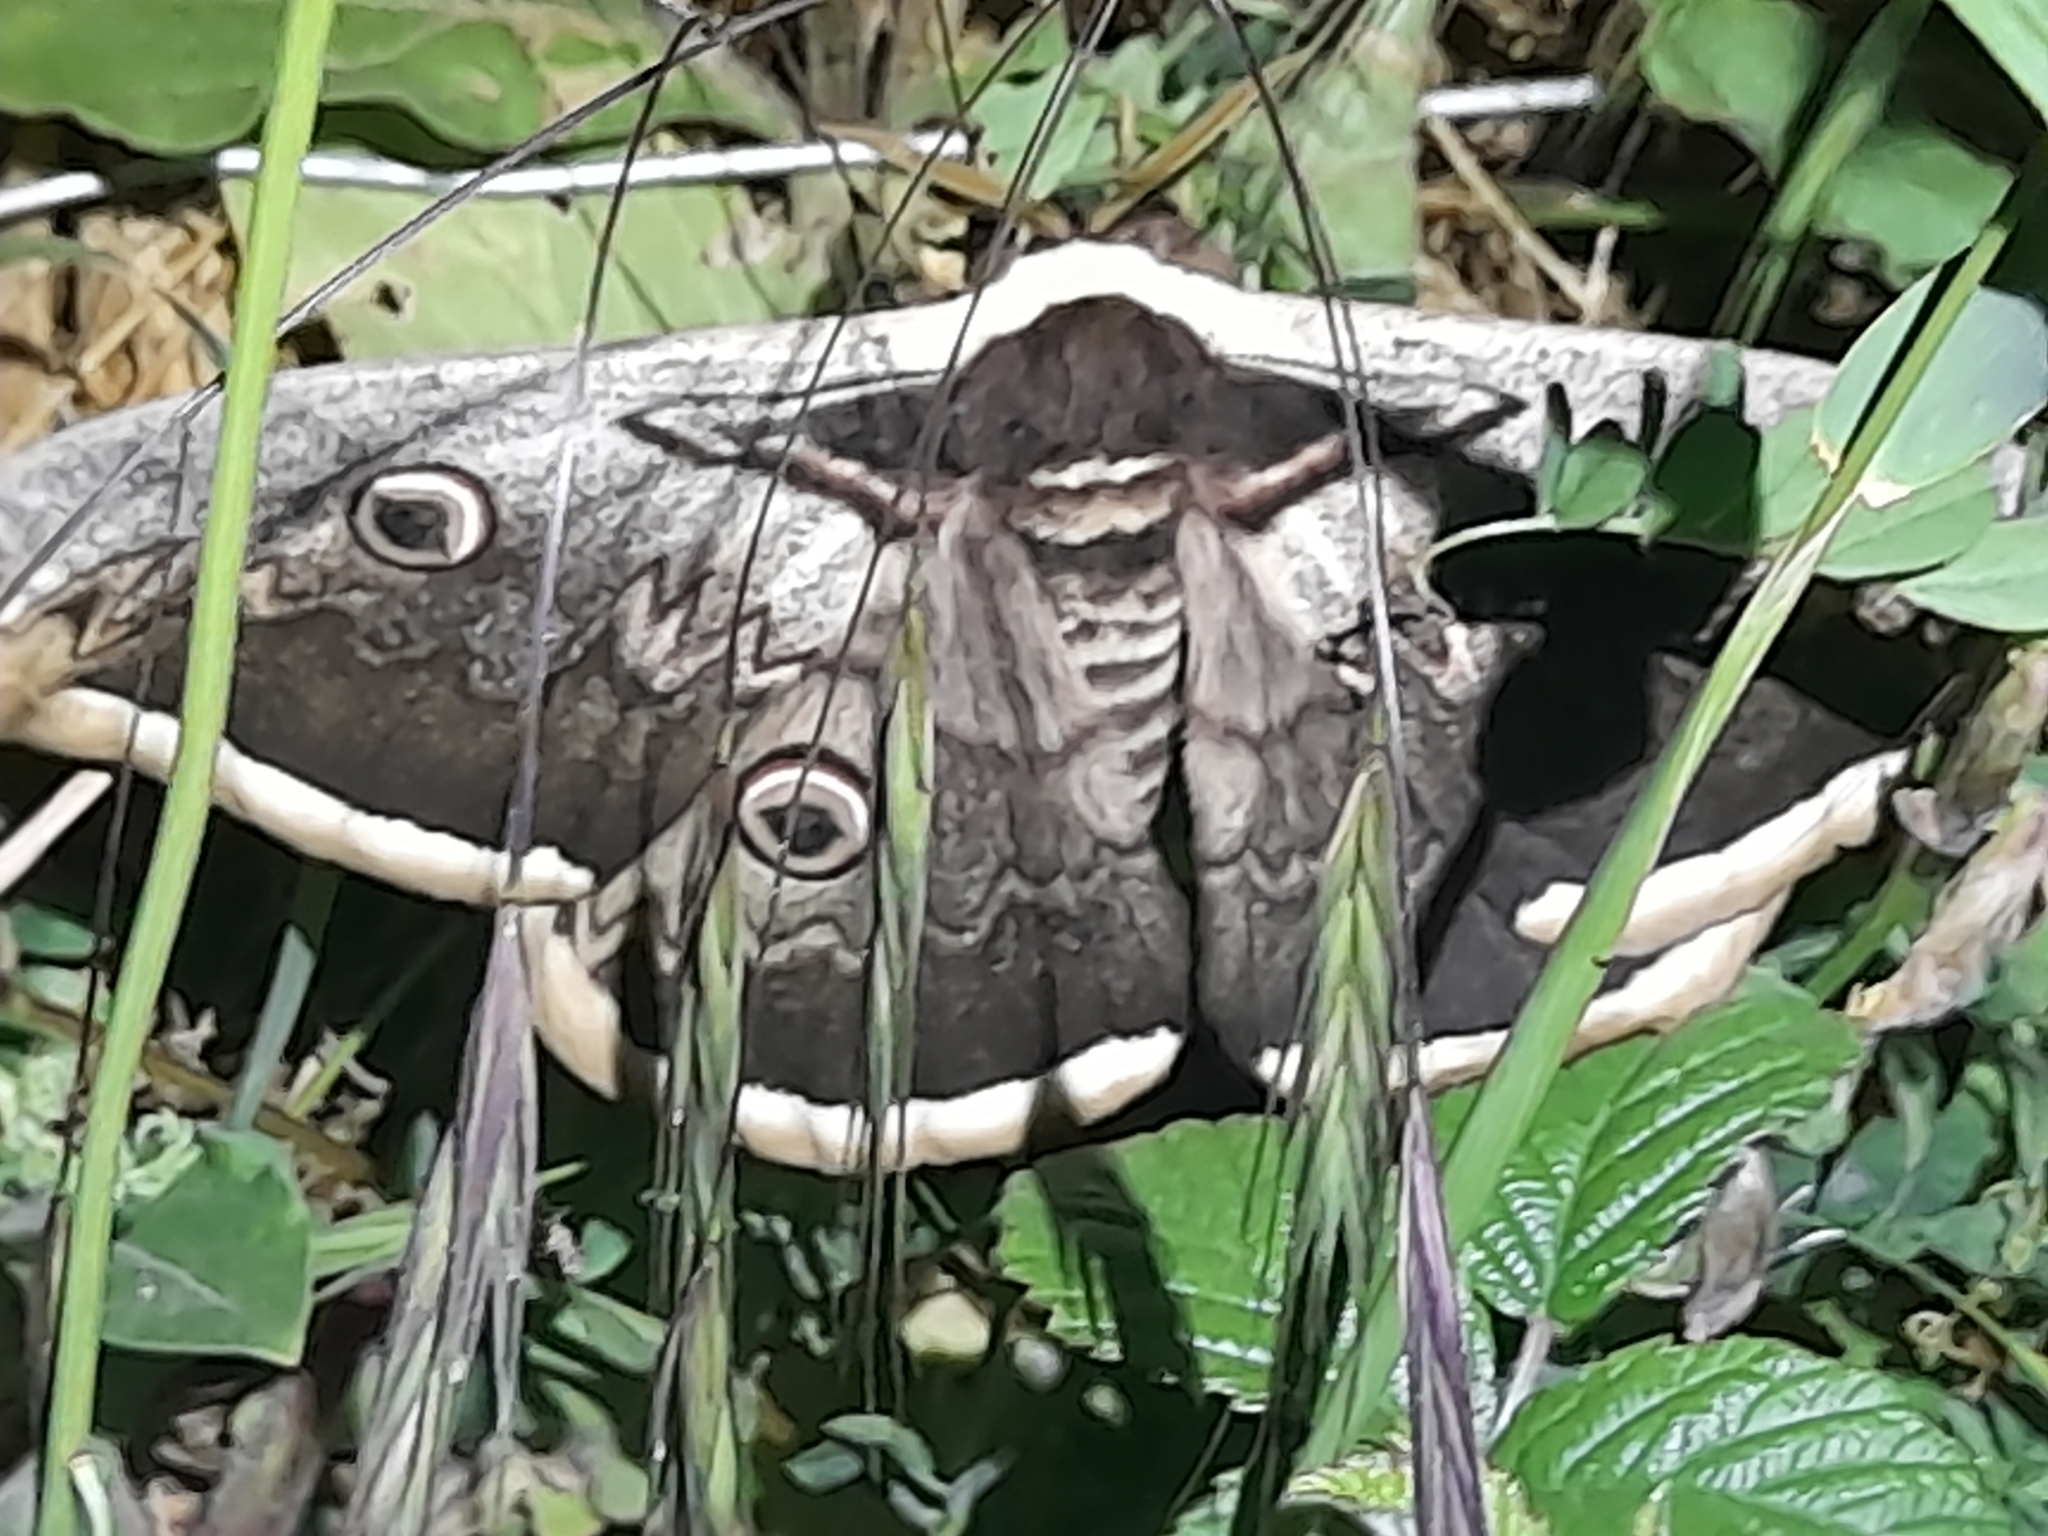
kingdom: Animalia
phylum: Arthropoda
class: Insecta
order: Lepidoptera
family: Saturniidae
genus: Saturnia
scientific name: Saturnia pyri
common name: Great peacock moth
